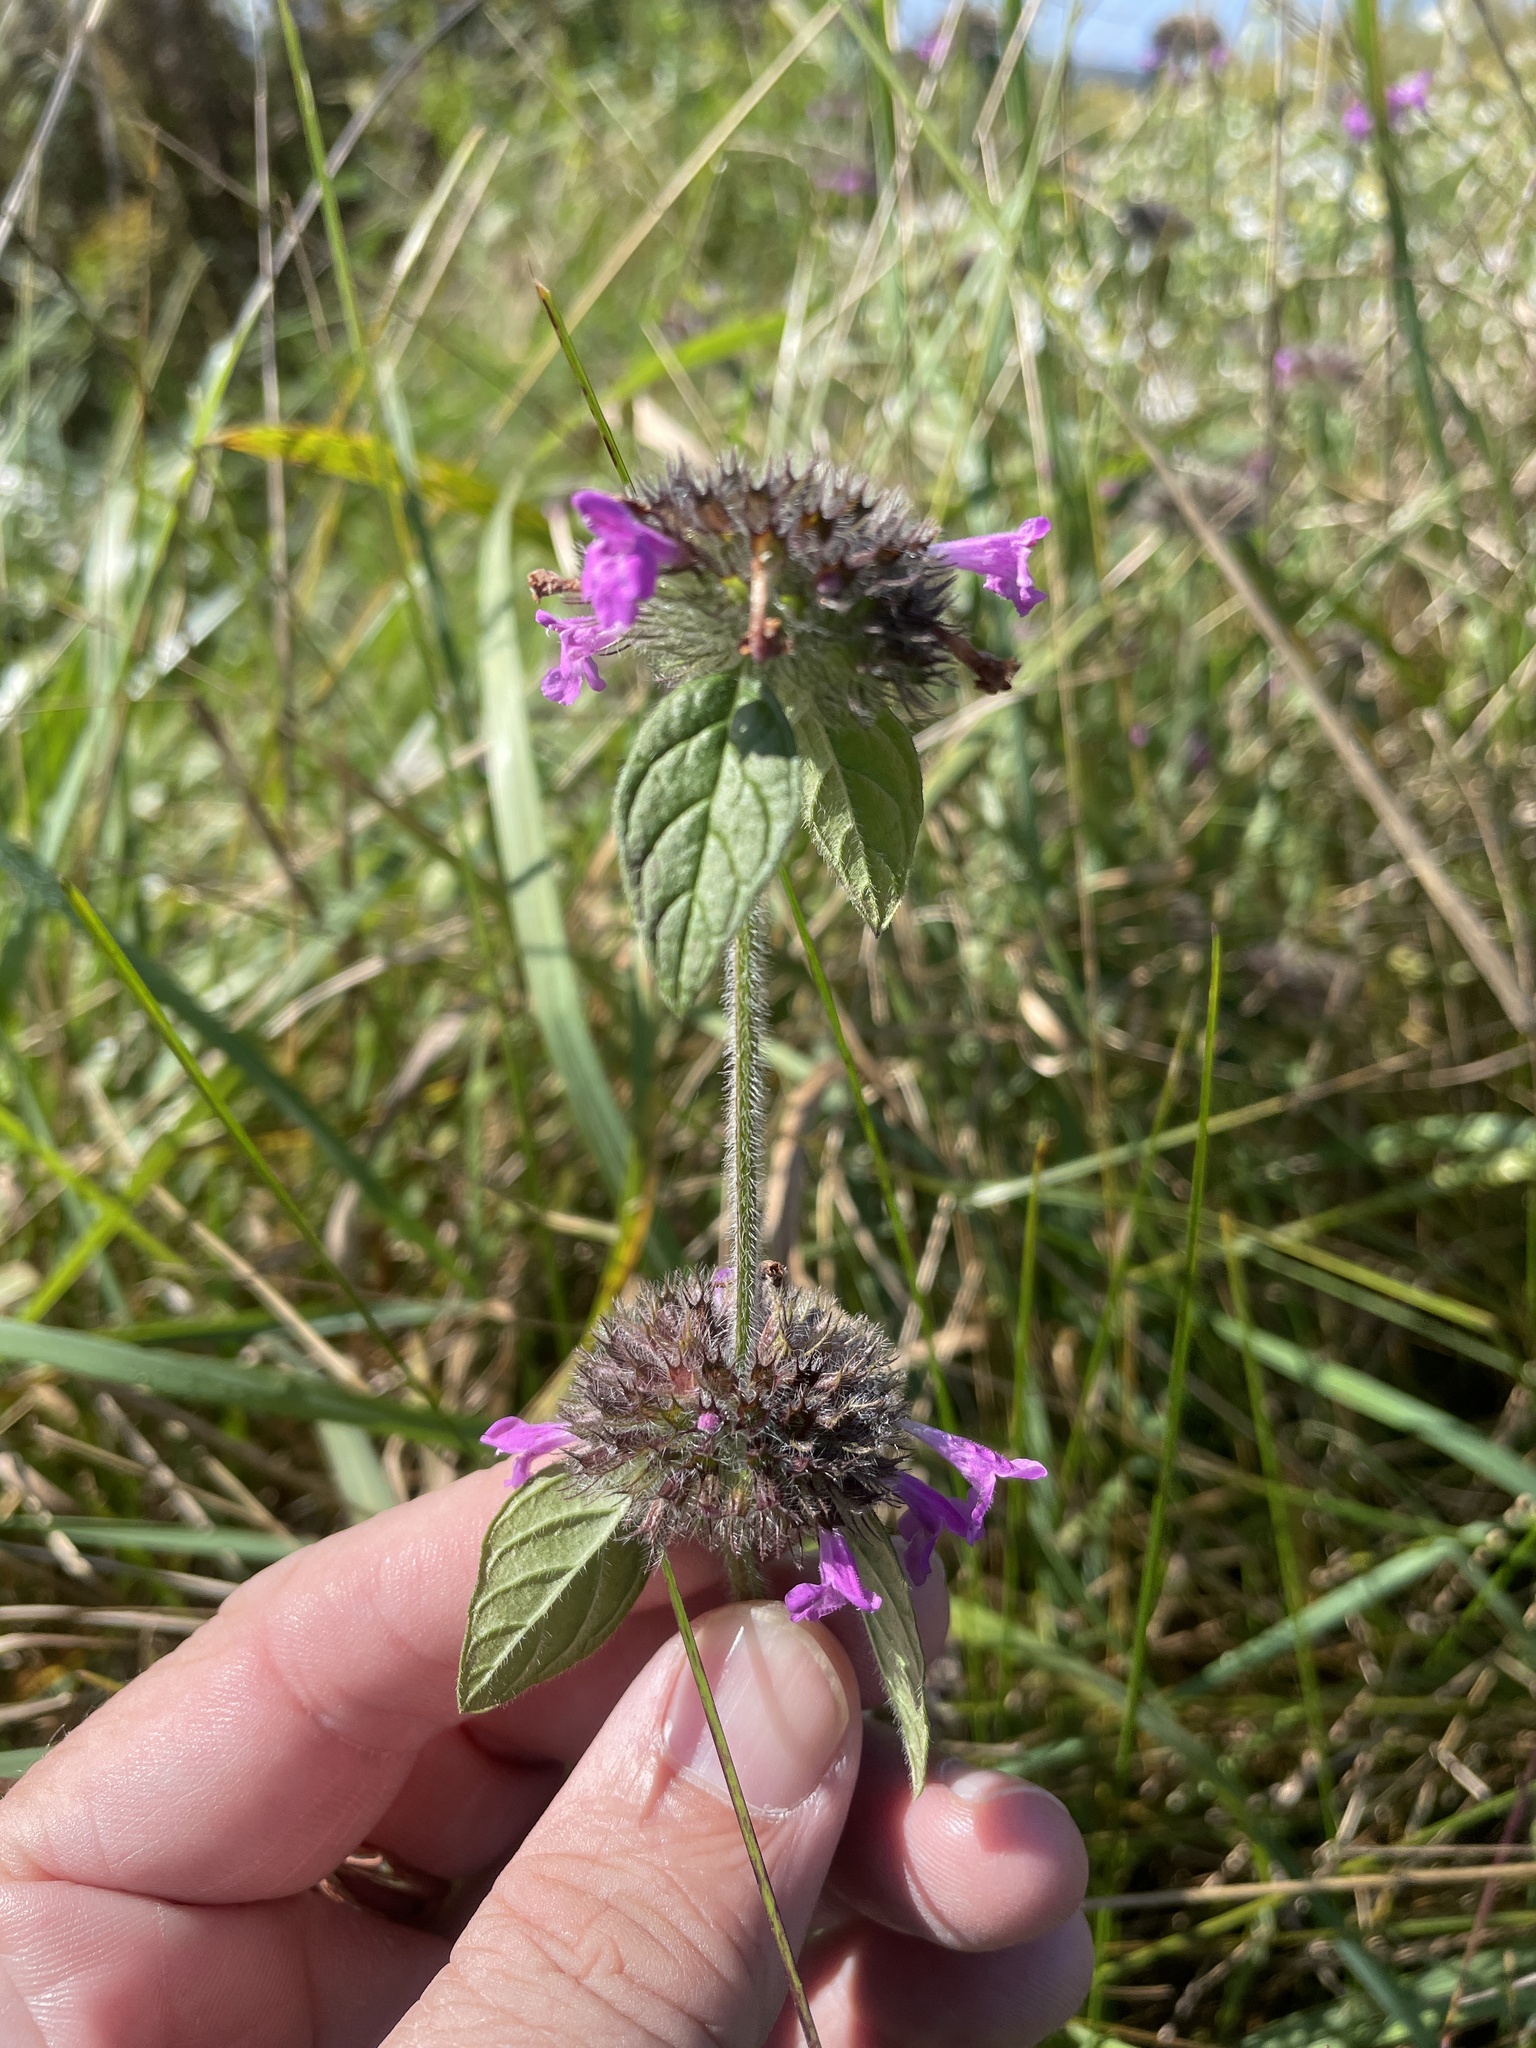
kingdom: Plantae
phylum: Tracheophyta
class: Magnoliopsida
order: Lamiales
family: Lamiaceae
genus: Clinopodium
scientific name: Clinopodium vulgare
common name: Wild basil
